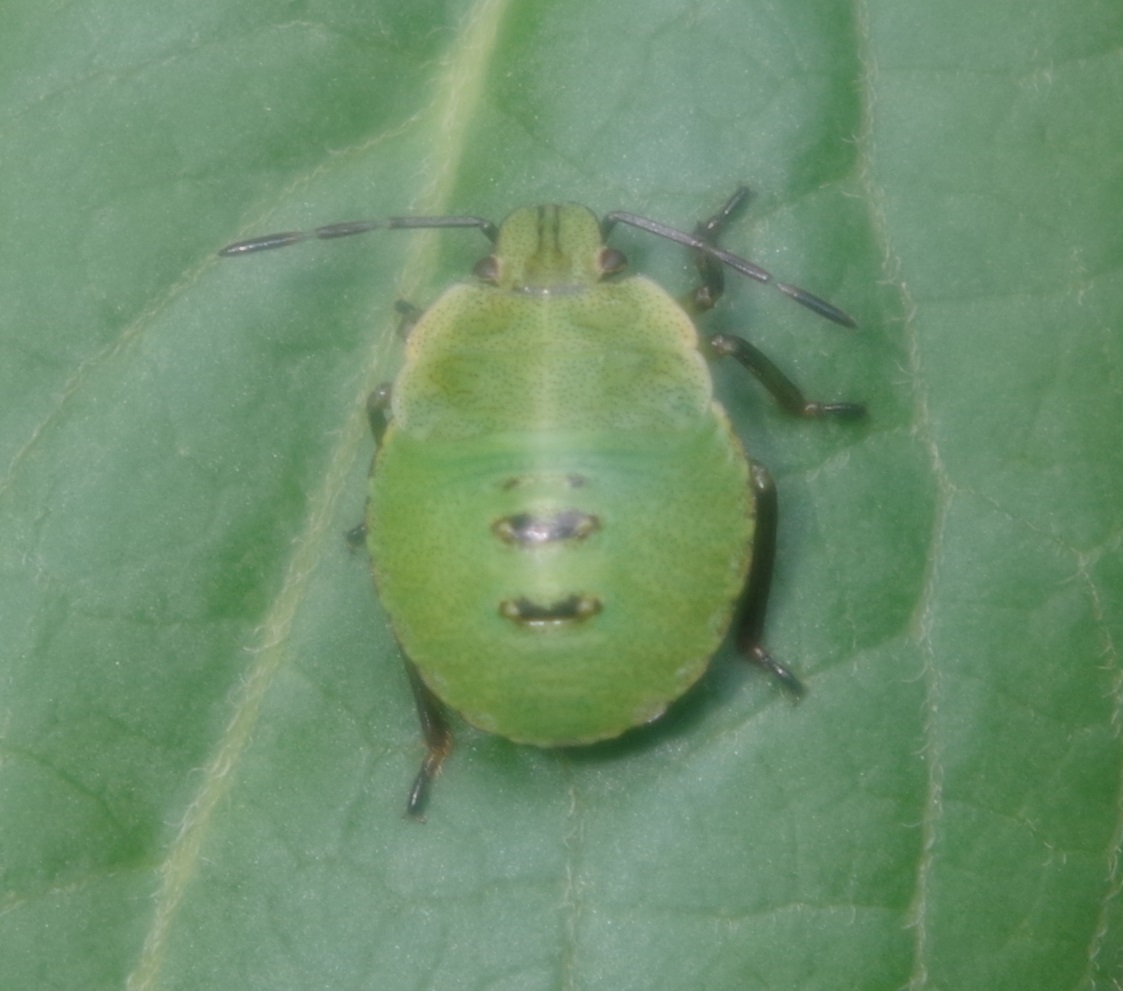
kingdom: Animalia
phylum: Arthropoda
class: Insecta
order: Hemiptera
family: Pentatomidae
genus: Palomena
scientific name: Palomena prasina
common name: Green shieldbug
